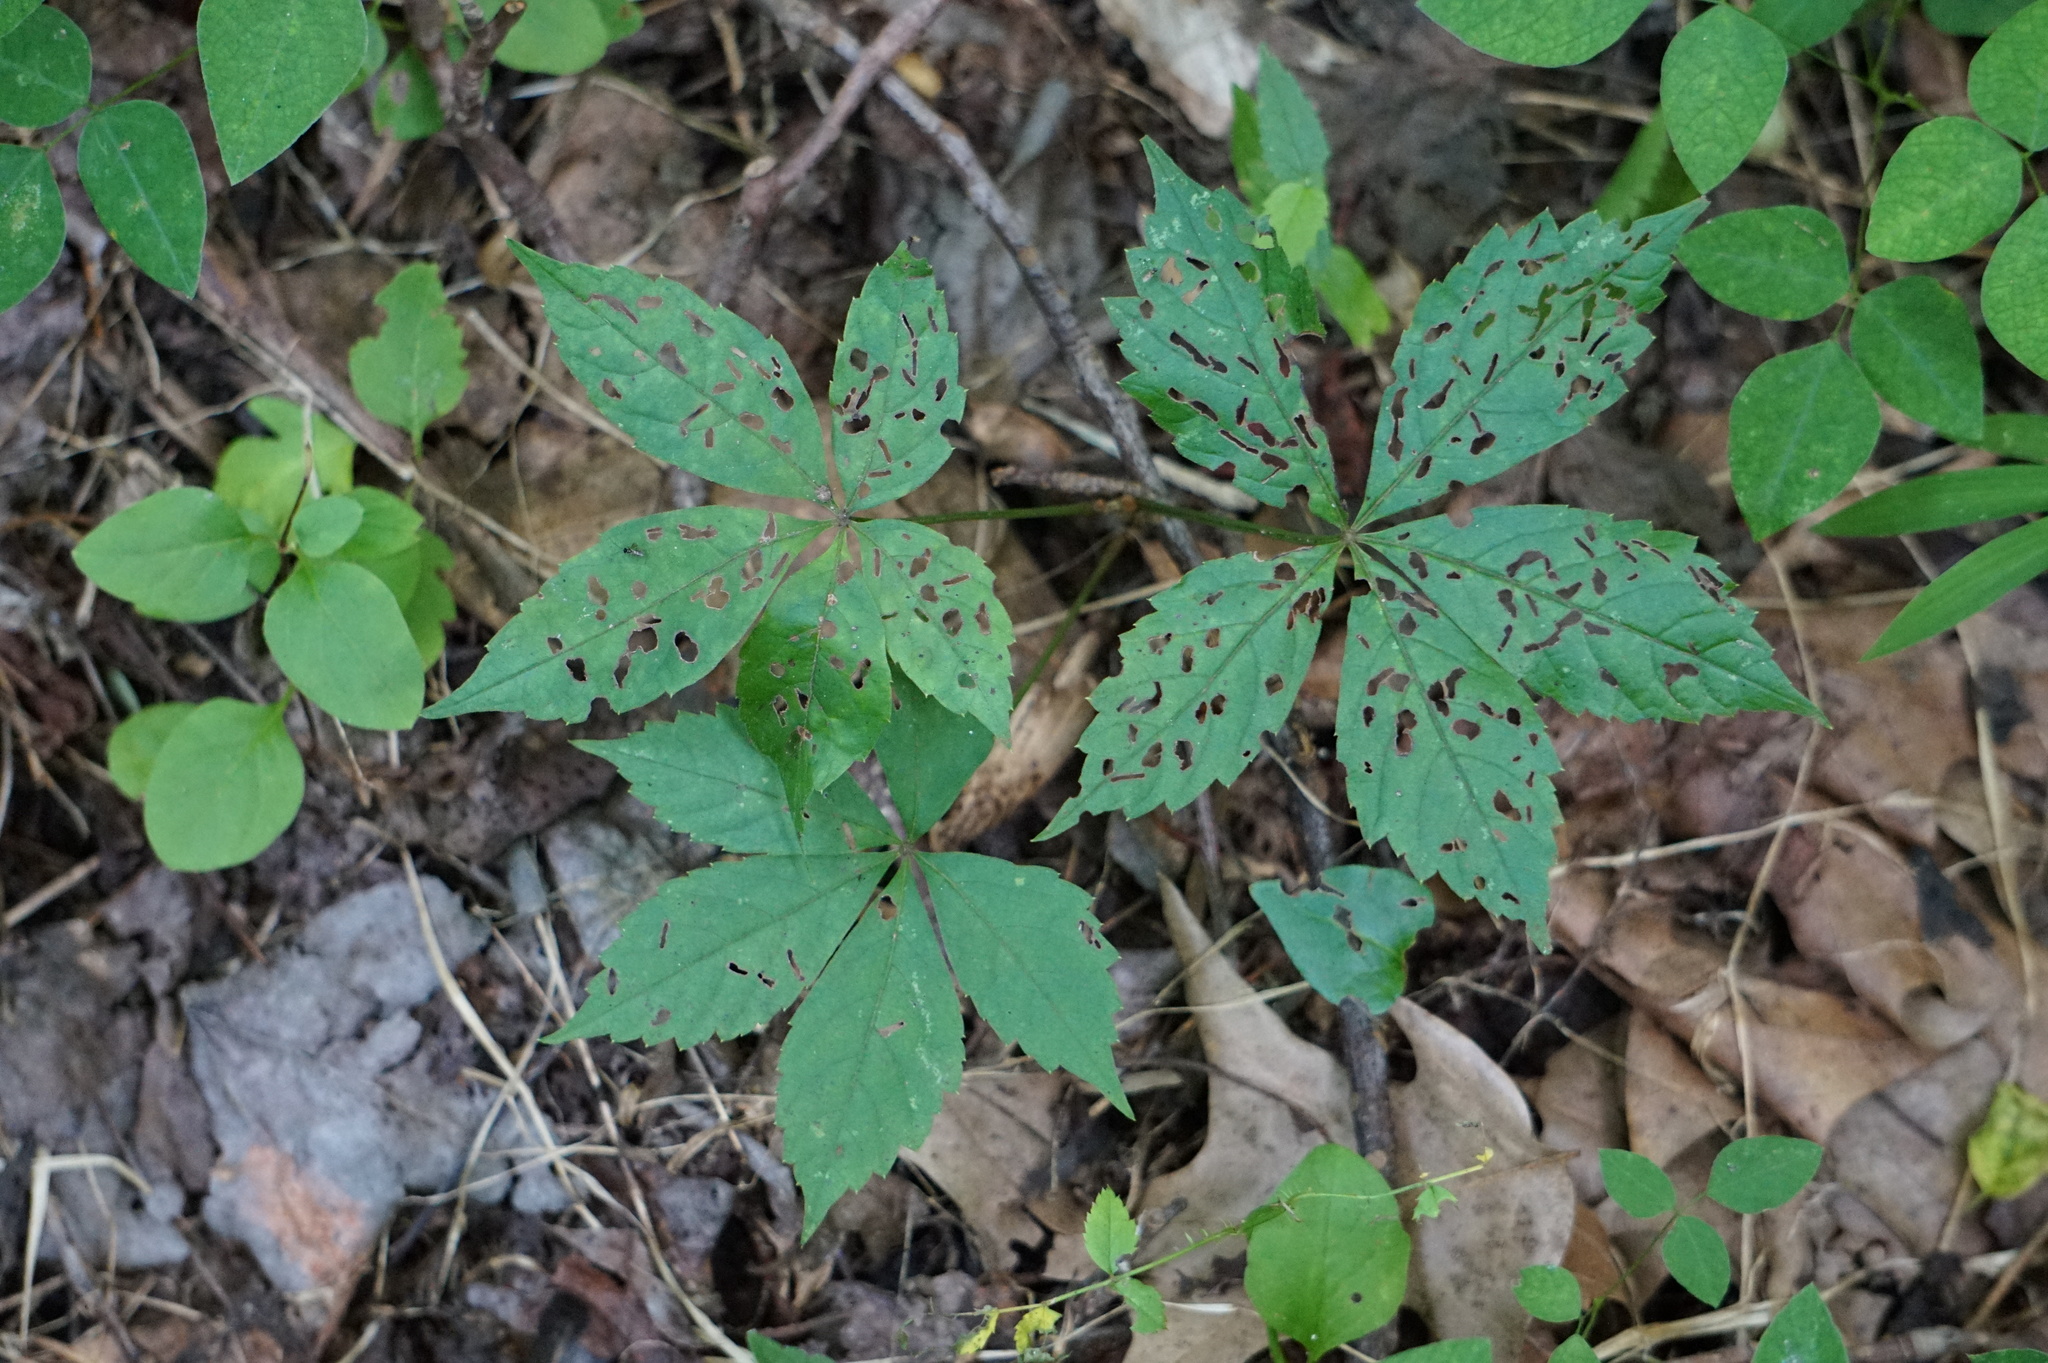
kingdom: Plantae
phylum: Tracheophyta
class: Magnoliopsida
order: Vitales
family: Vitaceae
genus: Parthenocissus
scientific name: Parthenocissus quinquefolia
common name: Virginia-creeper
